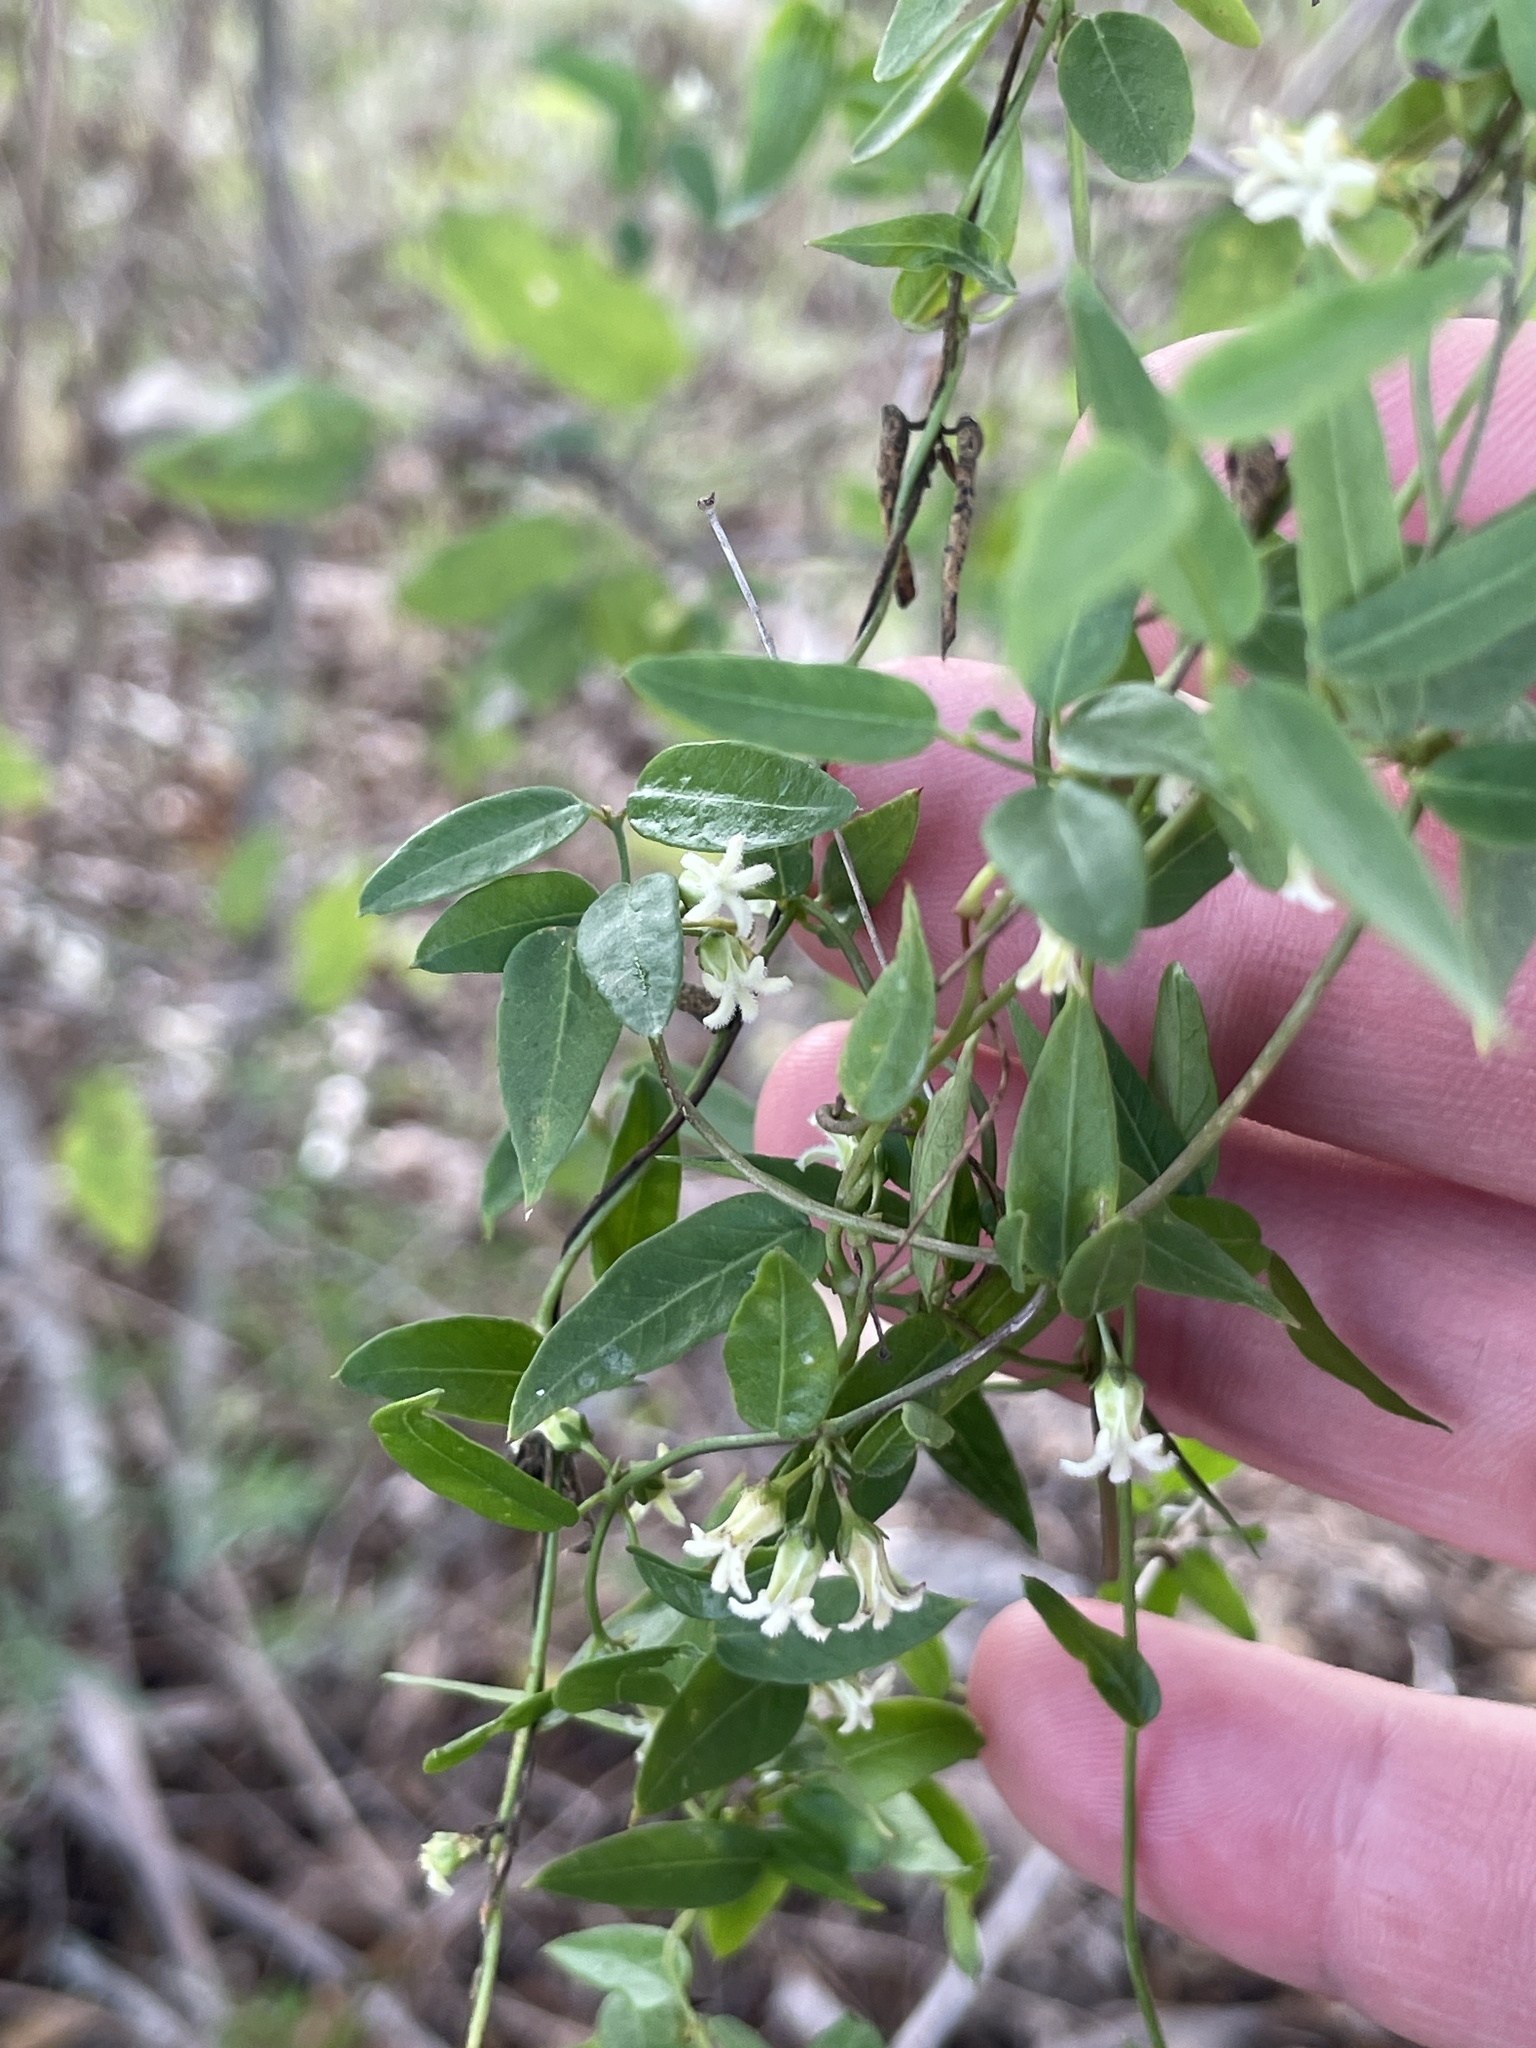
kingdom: Plantae
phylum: Tracheophyta
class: Magnoliopsida
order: Gentianales
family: Apocynaceae
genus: Metastelma
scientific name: Metastelma barbigerum
